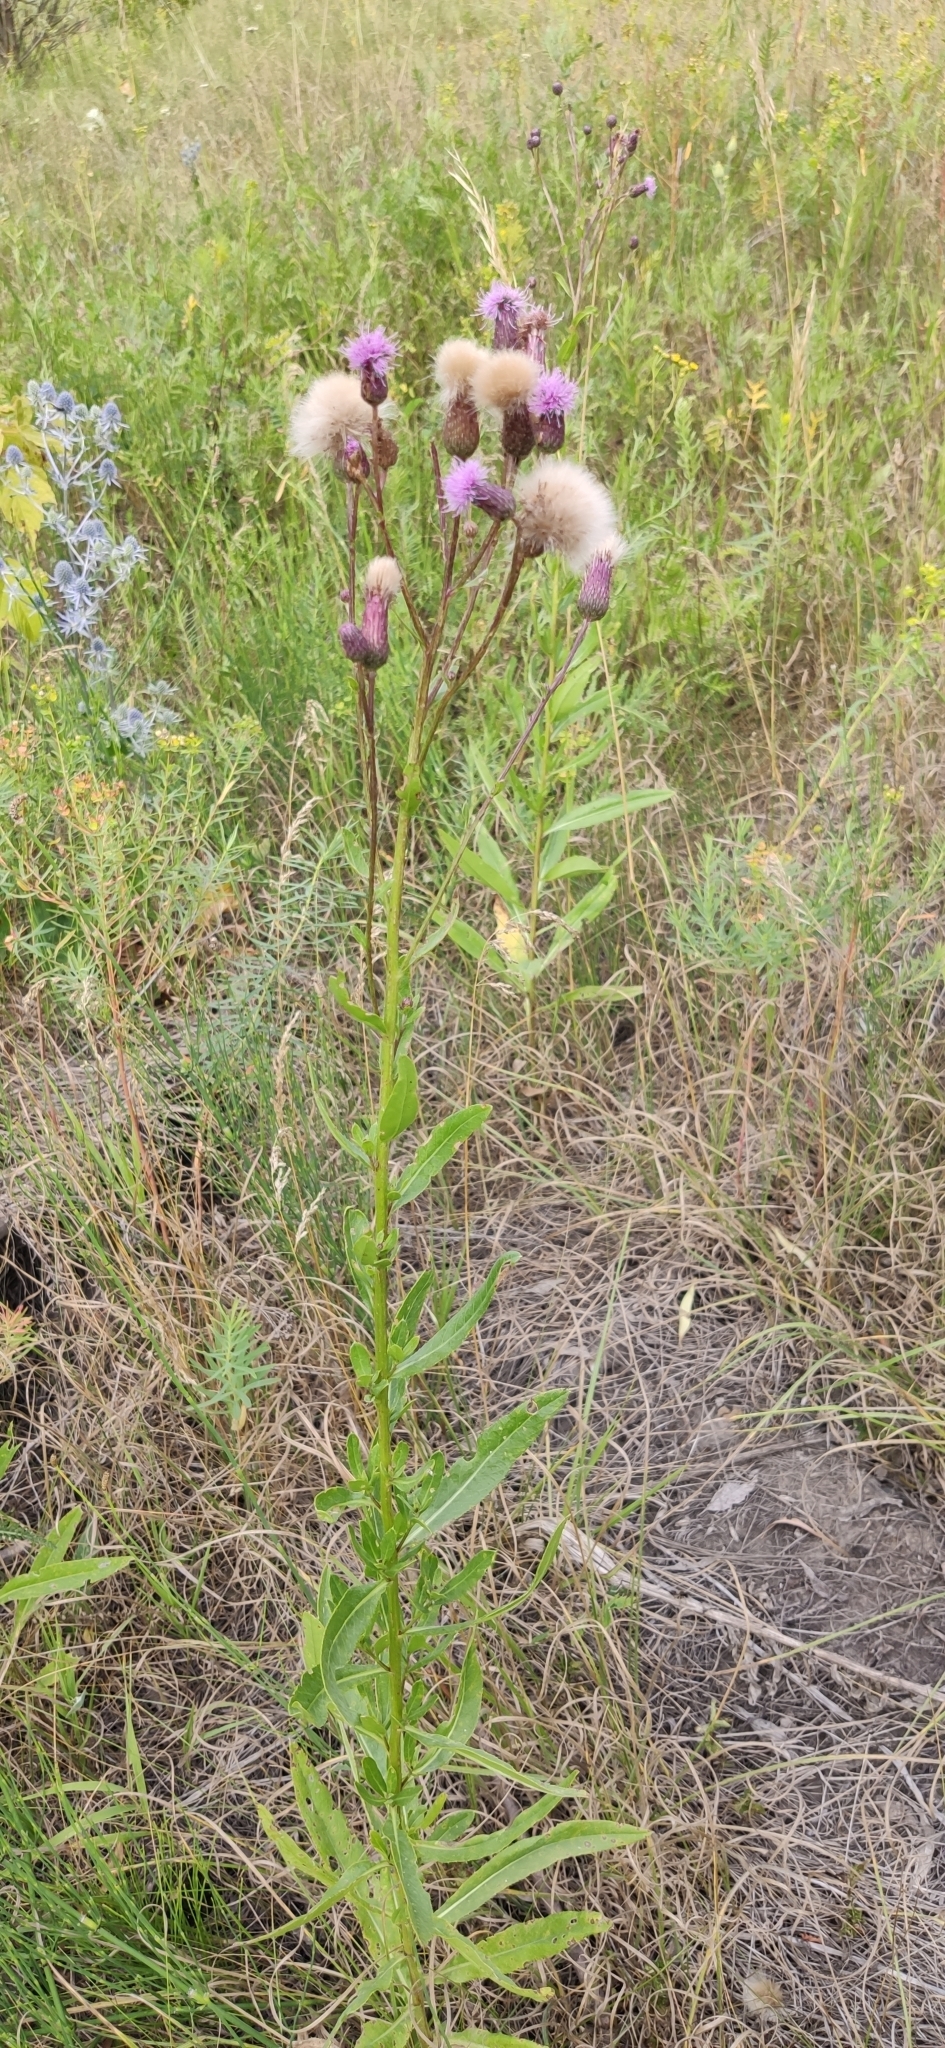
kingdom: Plantae
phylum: Tracheophyta
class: Magnoliopsida
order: Asterales
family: Asteraceae
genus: Cirsium
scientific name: Cirsium arvense
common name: Creeping thistle
